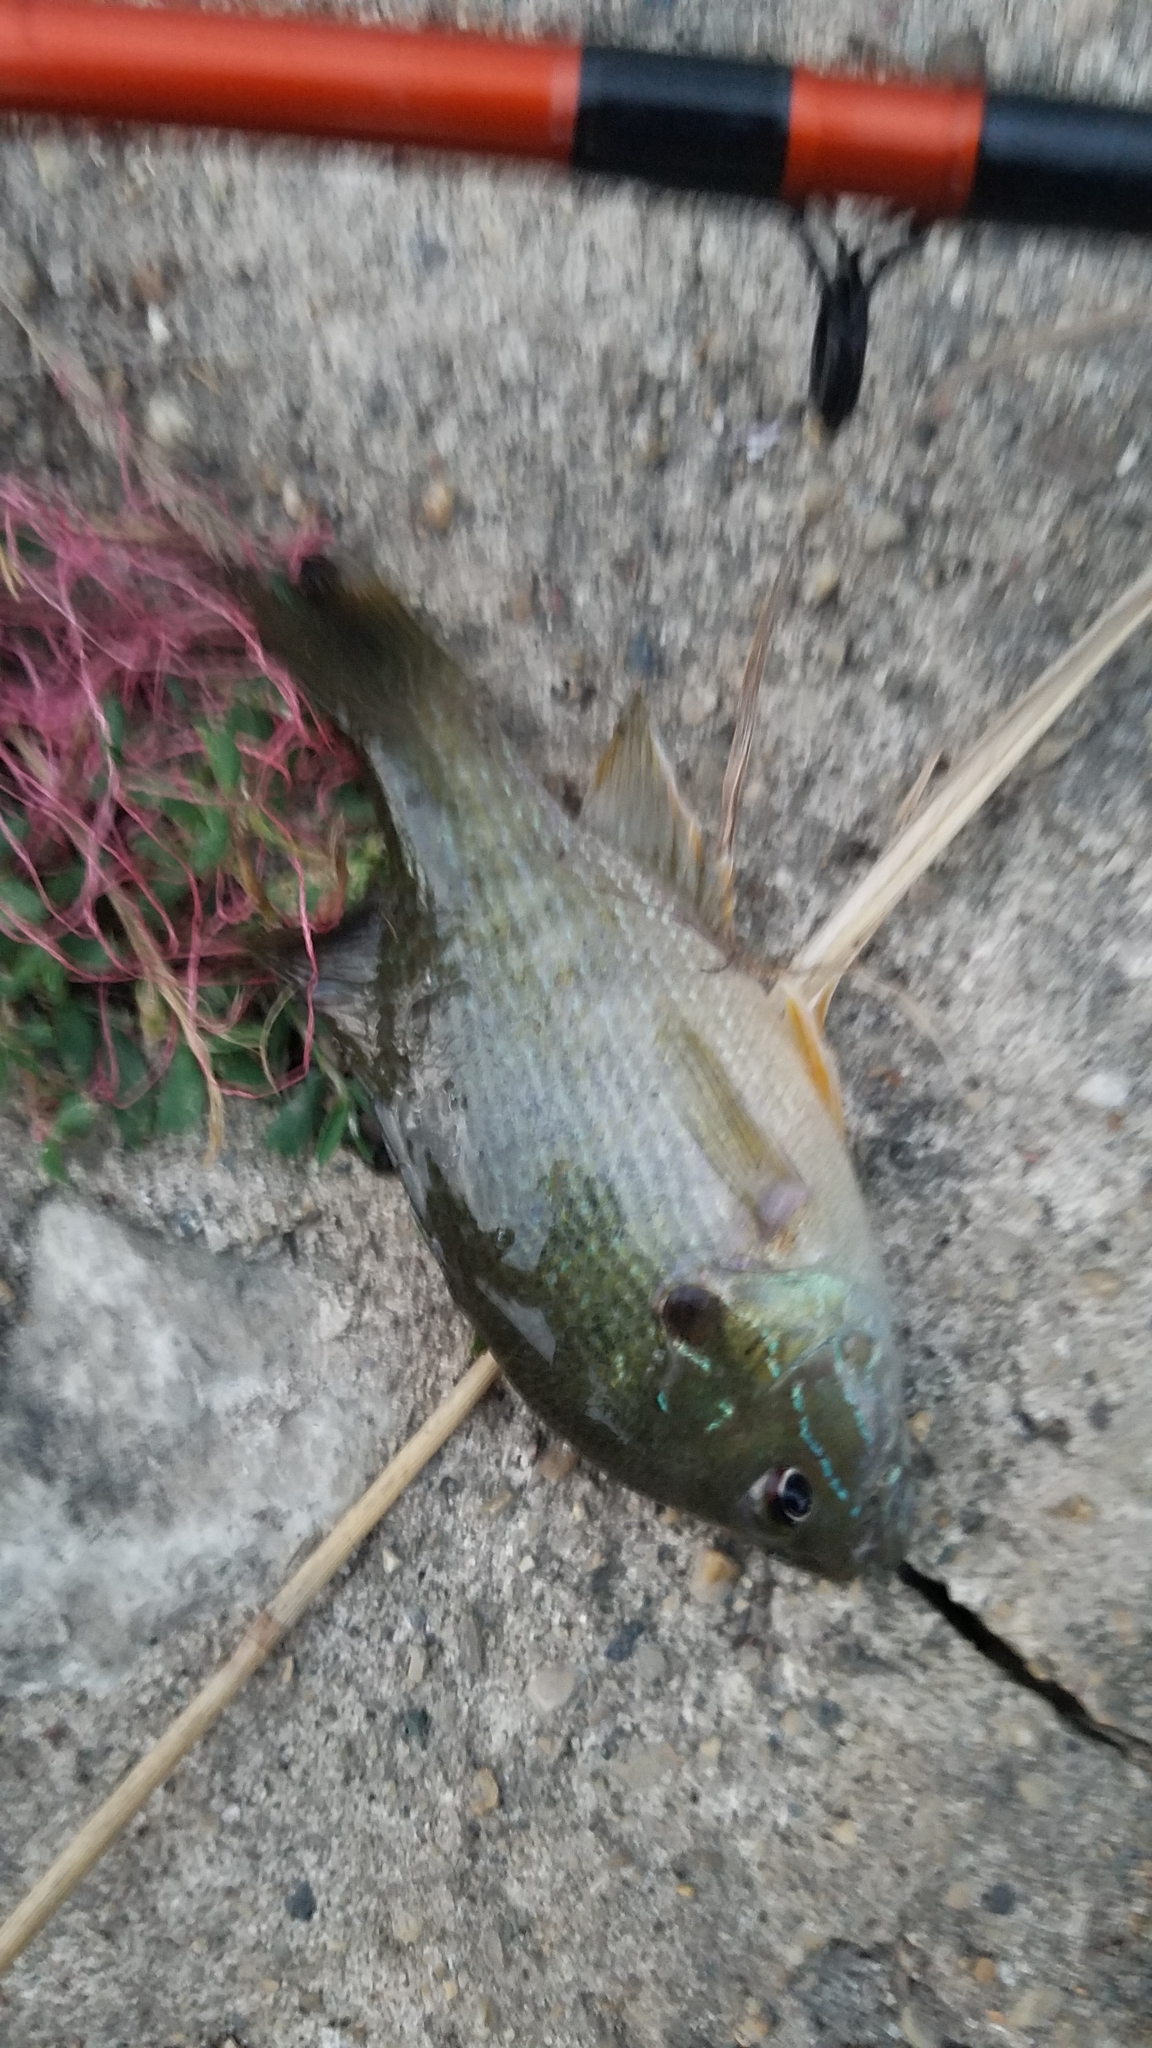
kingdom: Animalia
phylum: Chordata
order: Perciformes
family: Centrarchidae
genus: Lepomis
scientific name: Lepomis cyanellus
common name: Green sunfish
